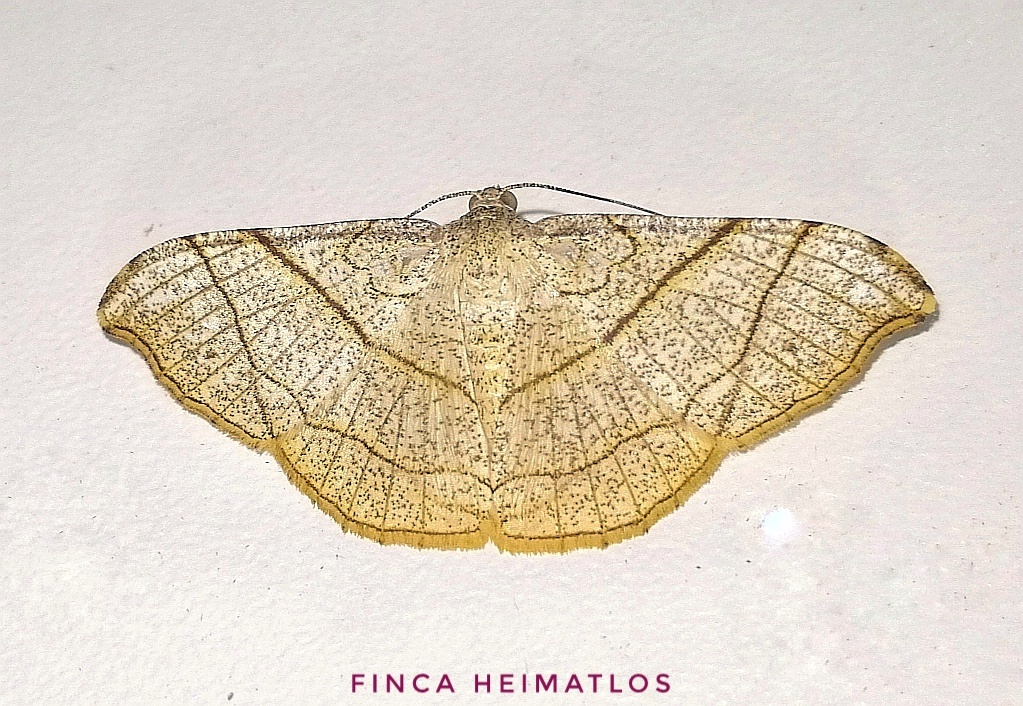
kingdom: Animalia
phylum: Arthropoda
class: Insecta
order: Lepidoptera
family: Geometridae
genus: Semiothisa
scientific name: Semiothisa divergentata
